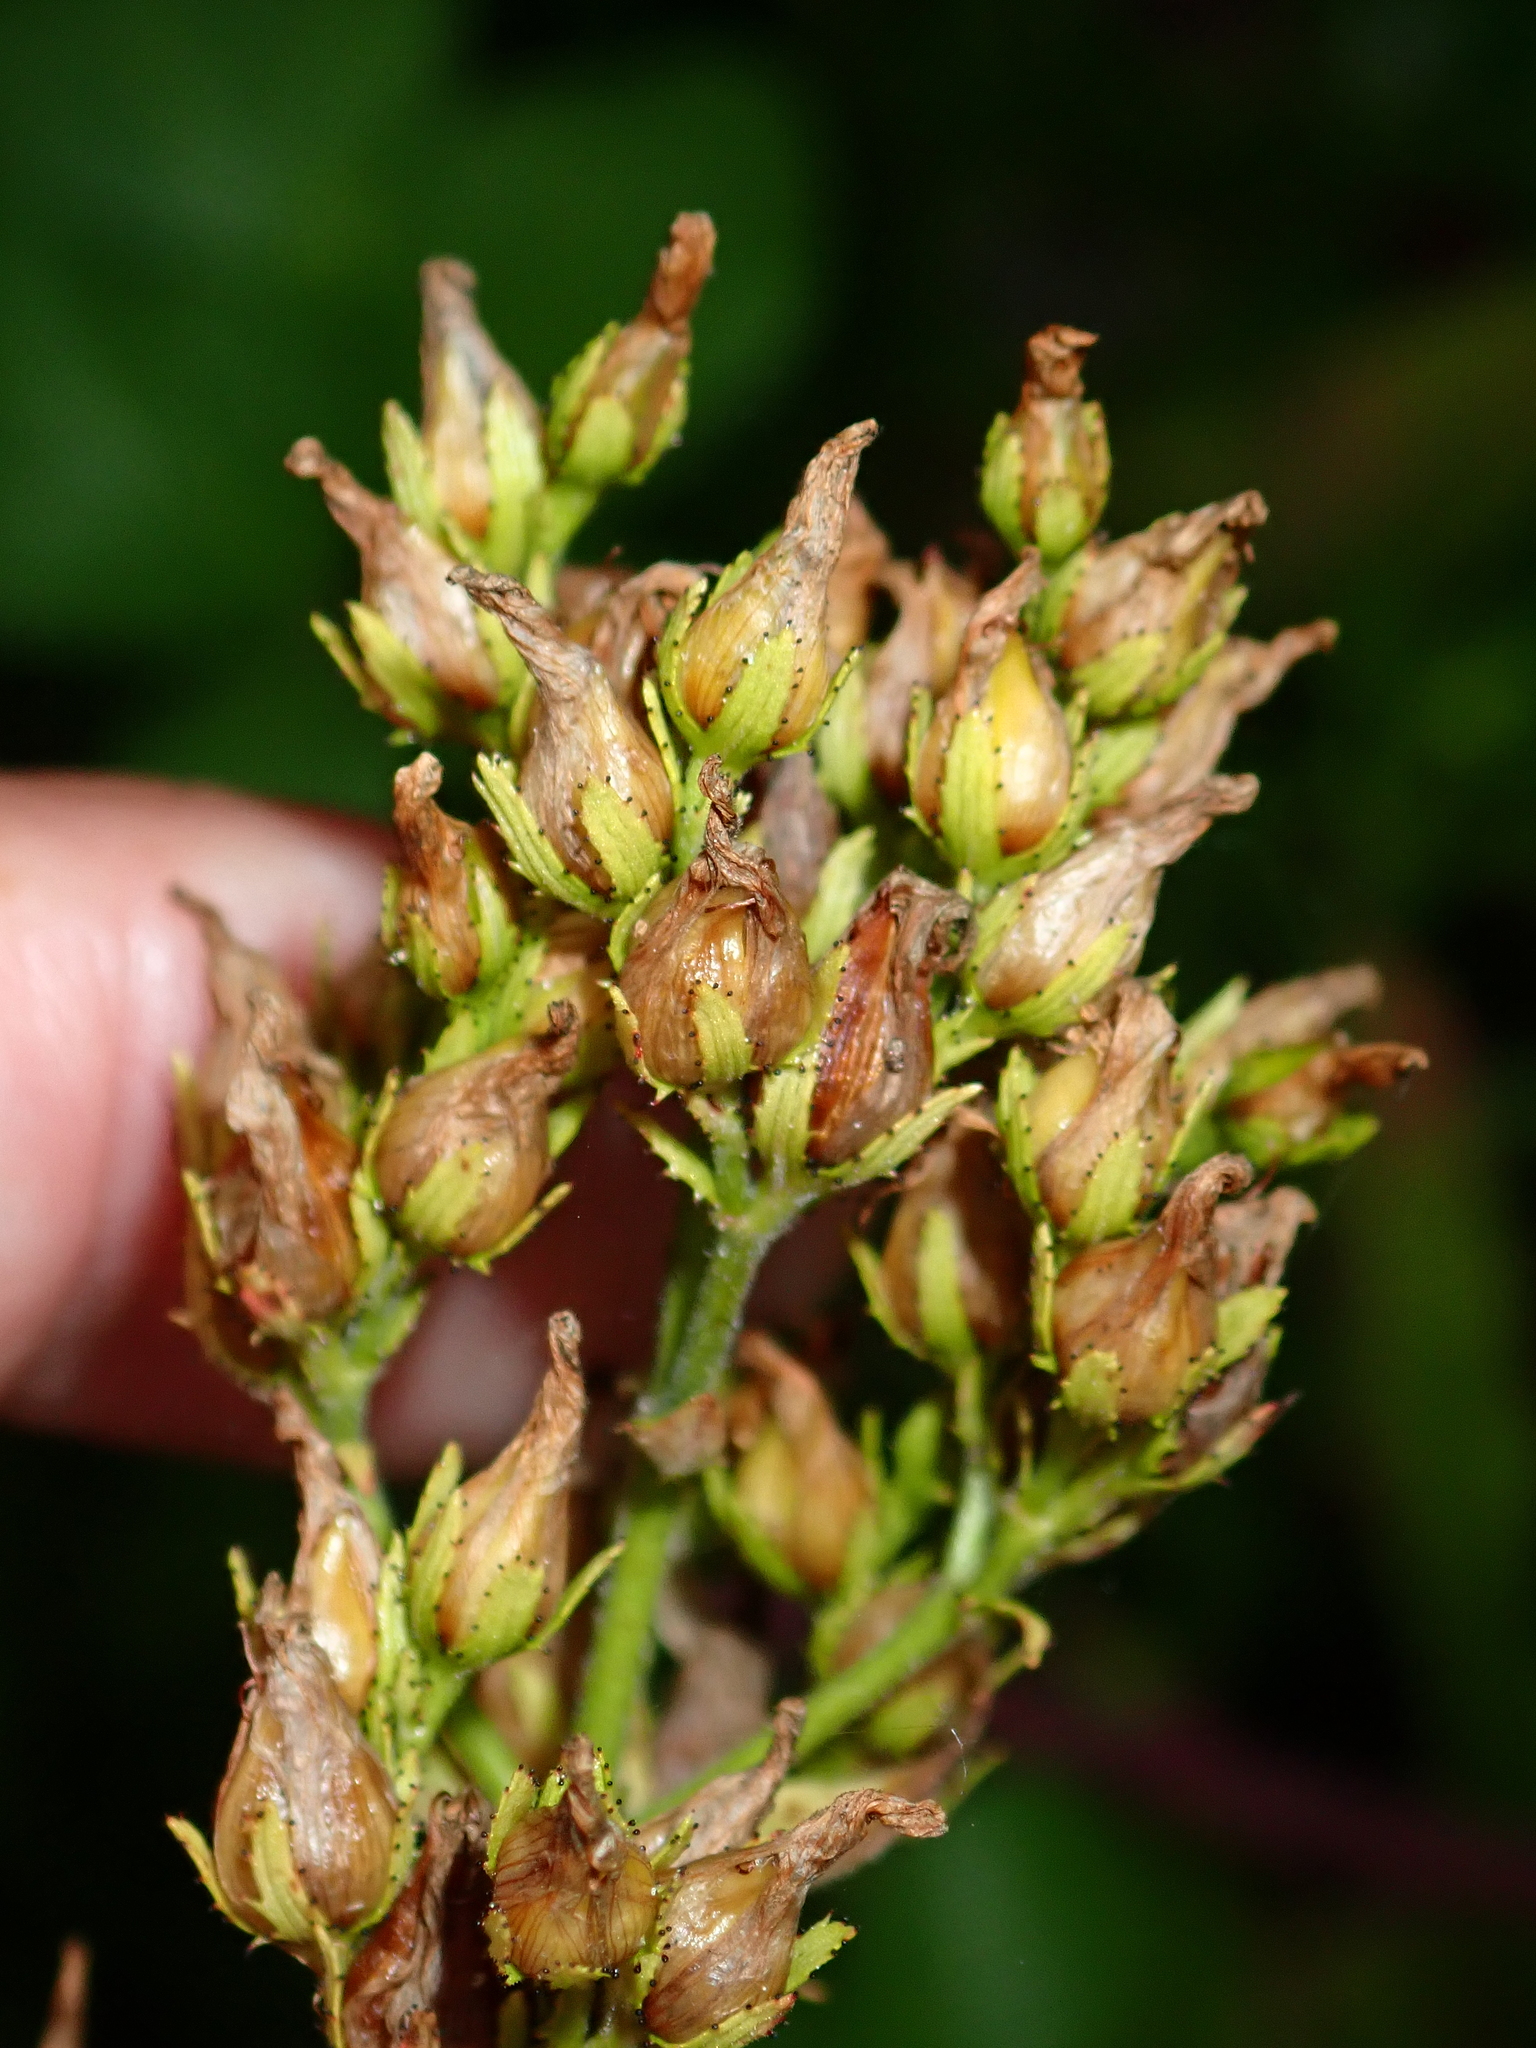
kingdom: Plantae
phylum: Tracheophyta
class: Magnoliopsida
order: Malpighiales
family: Hypericaceae
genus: Hypericum
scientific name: Hypericum hirsutum
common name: Hairy st. john's-wort
